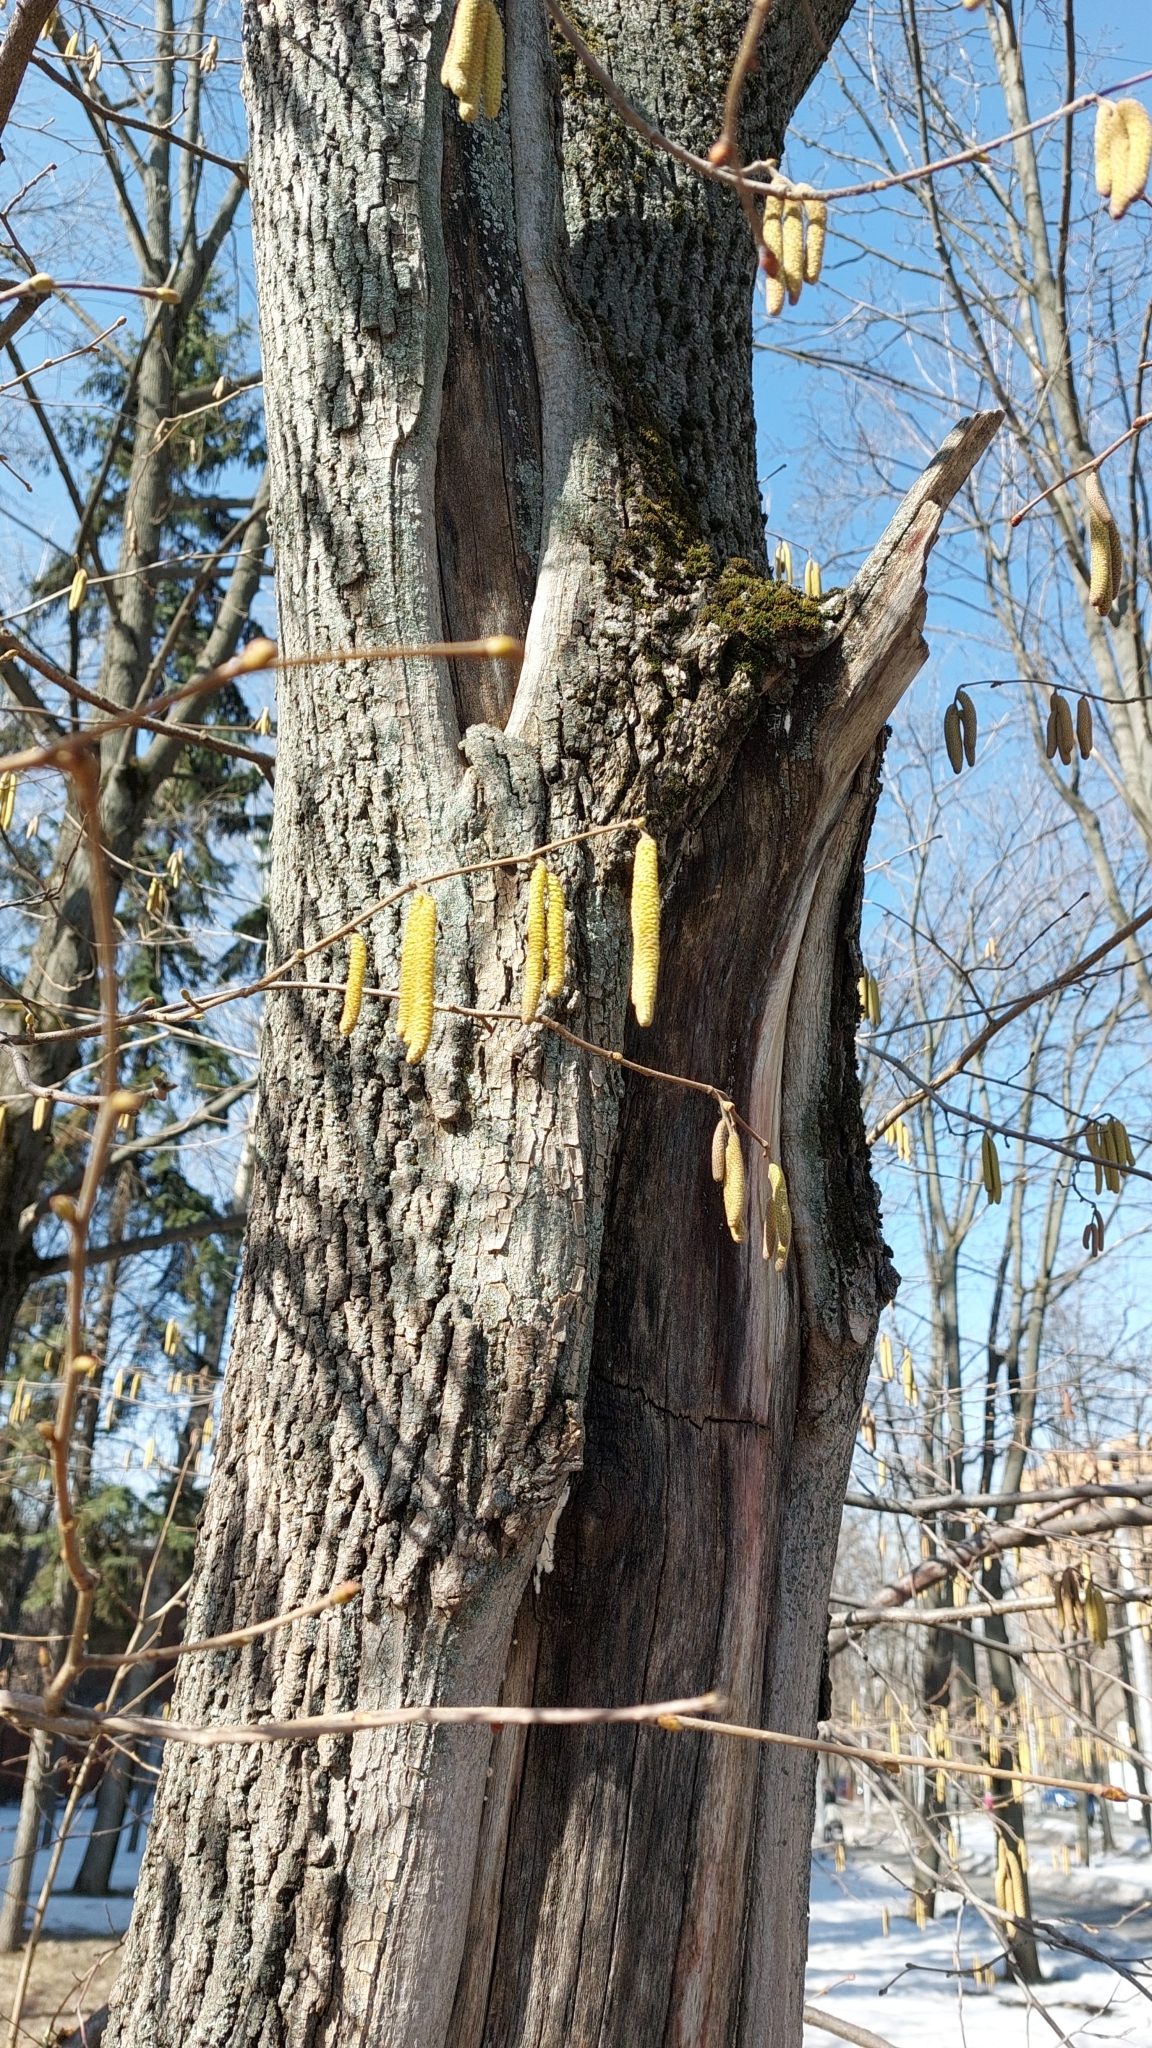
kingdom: Plantae
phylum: Tracheophyta
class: Magnoliopsida
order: Fagales
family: Betulaceae
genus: Corylus
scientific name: Corylus avellana
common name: European hazel
